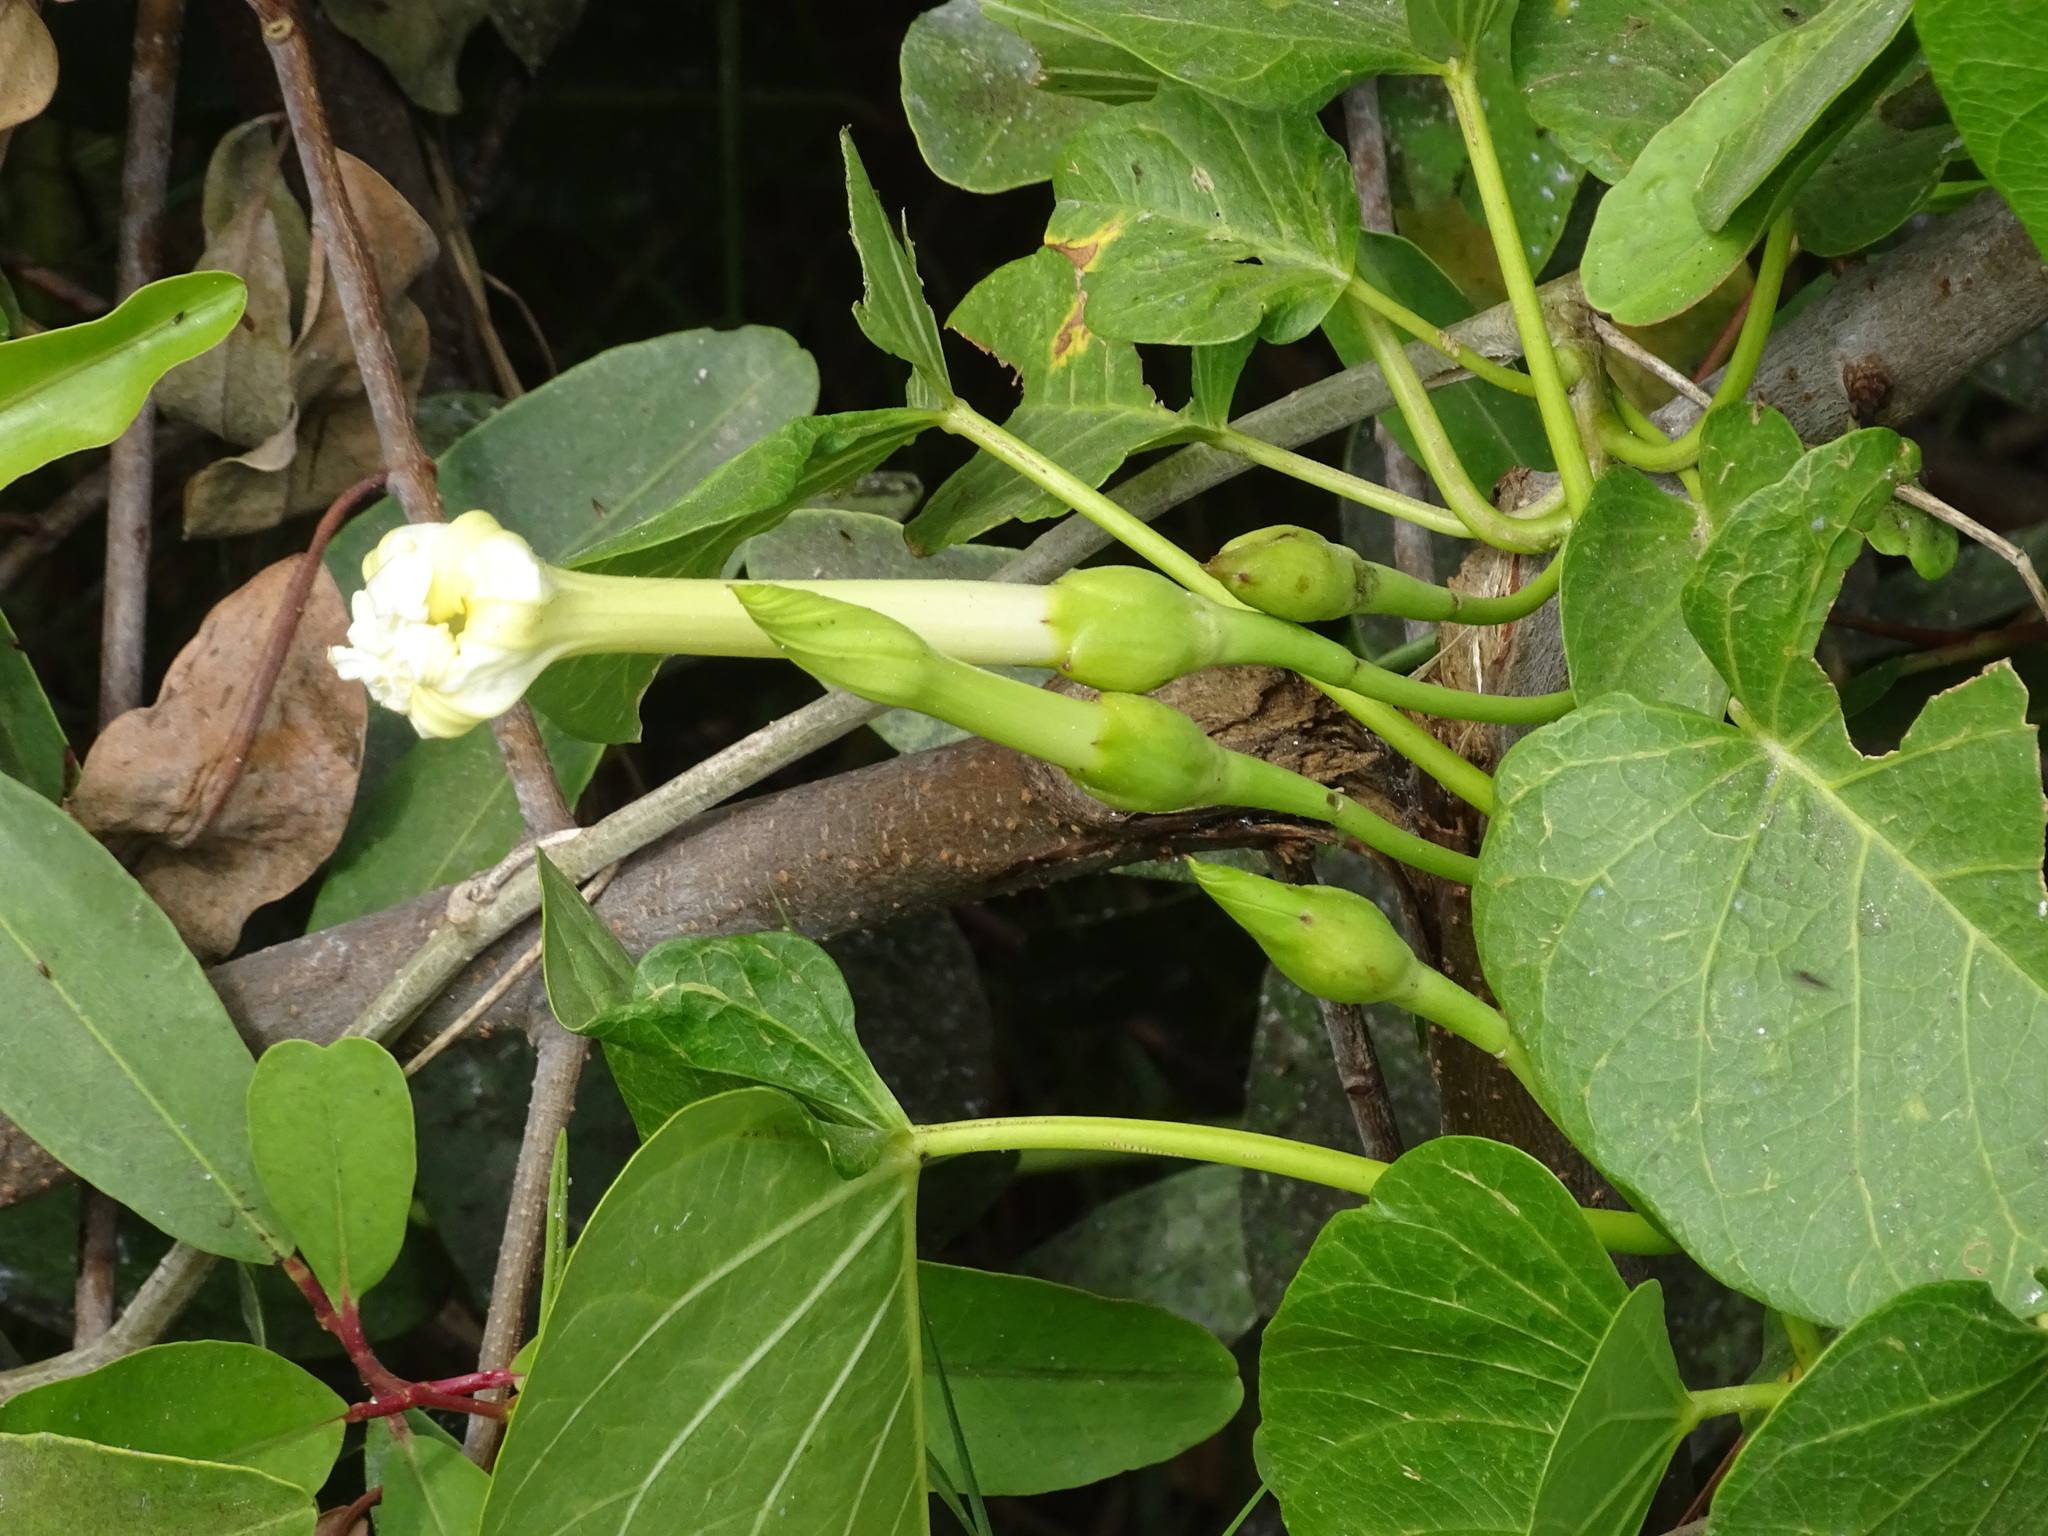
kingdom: Plantae
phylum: Tracheophyta
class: Magnoliopsida
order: Solanales
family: Convolvulaceae
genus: Ipomoea
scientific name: Ipomoea violacea
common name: Beach moonflower
